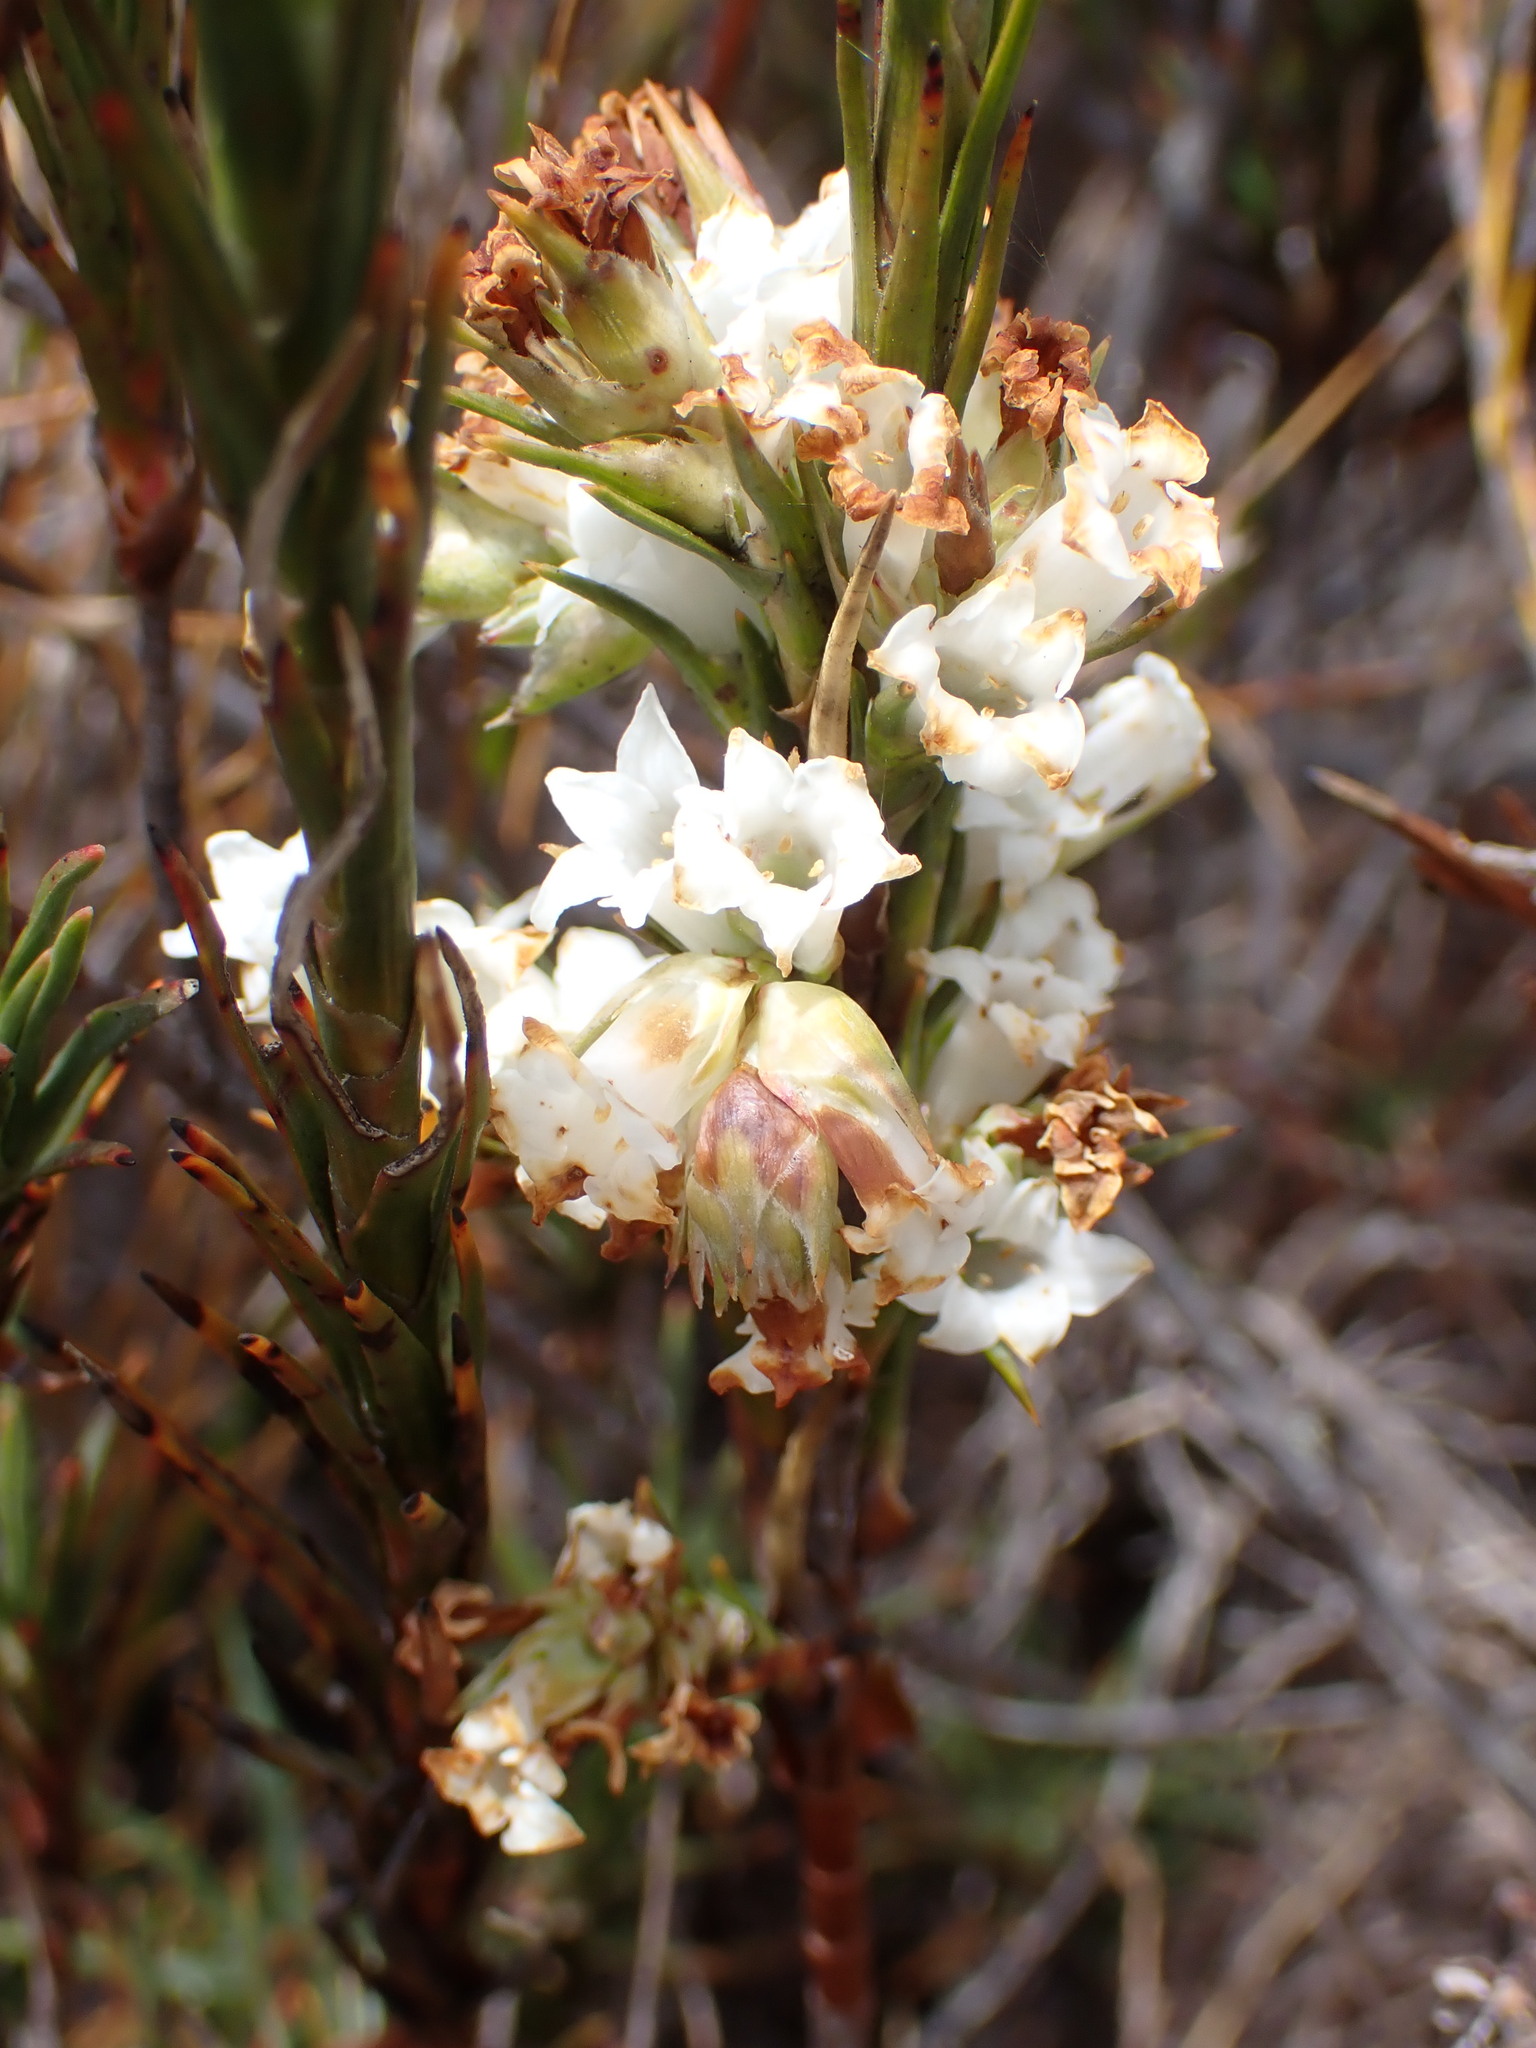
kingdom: Plantae
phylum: Tracheophyta
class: Magnoliopsida
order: Ericales
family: Ericaceae
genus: Dracophyllum
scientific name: Dracophyllum oliveri
